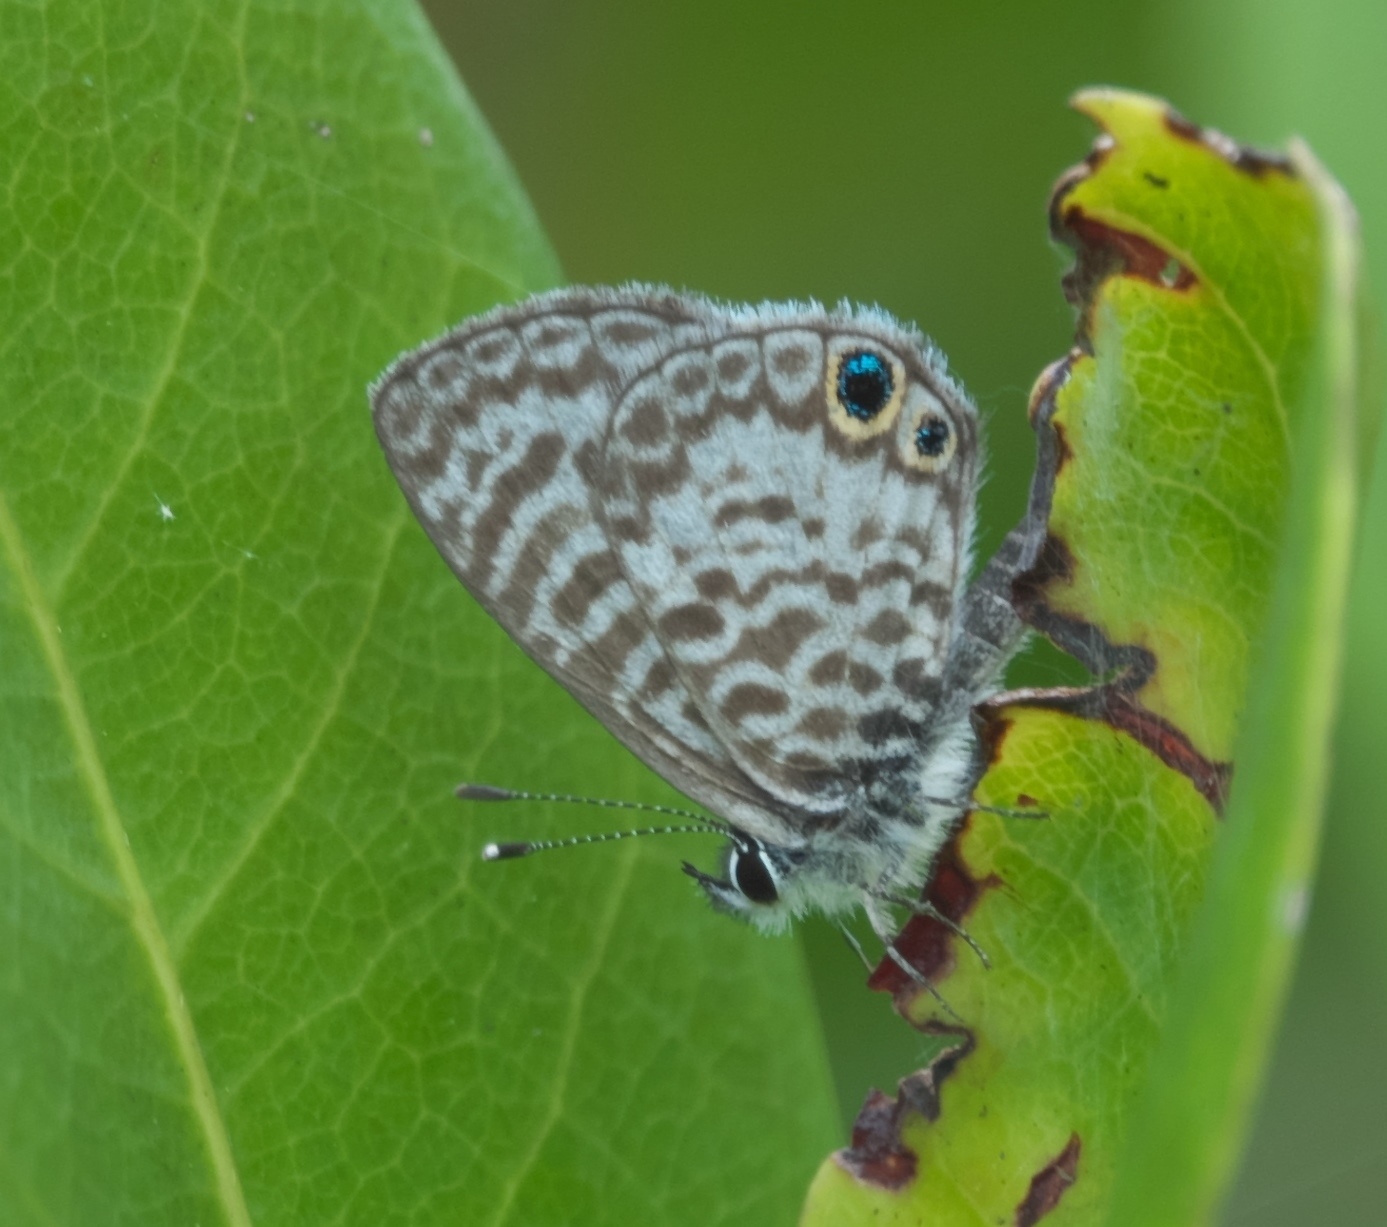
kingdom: Animalia
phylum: Arthropoda
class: Insecta
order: Lepidoptera
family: Lycaenidae
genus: Leptotes
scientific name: Leptotes cassius
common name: Cassius blue
